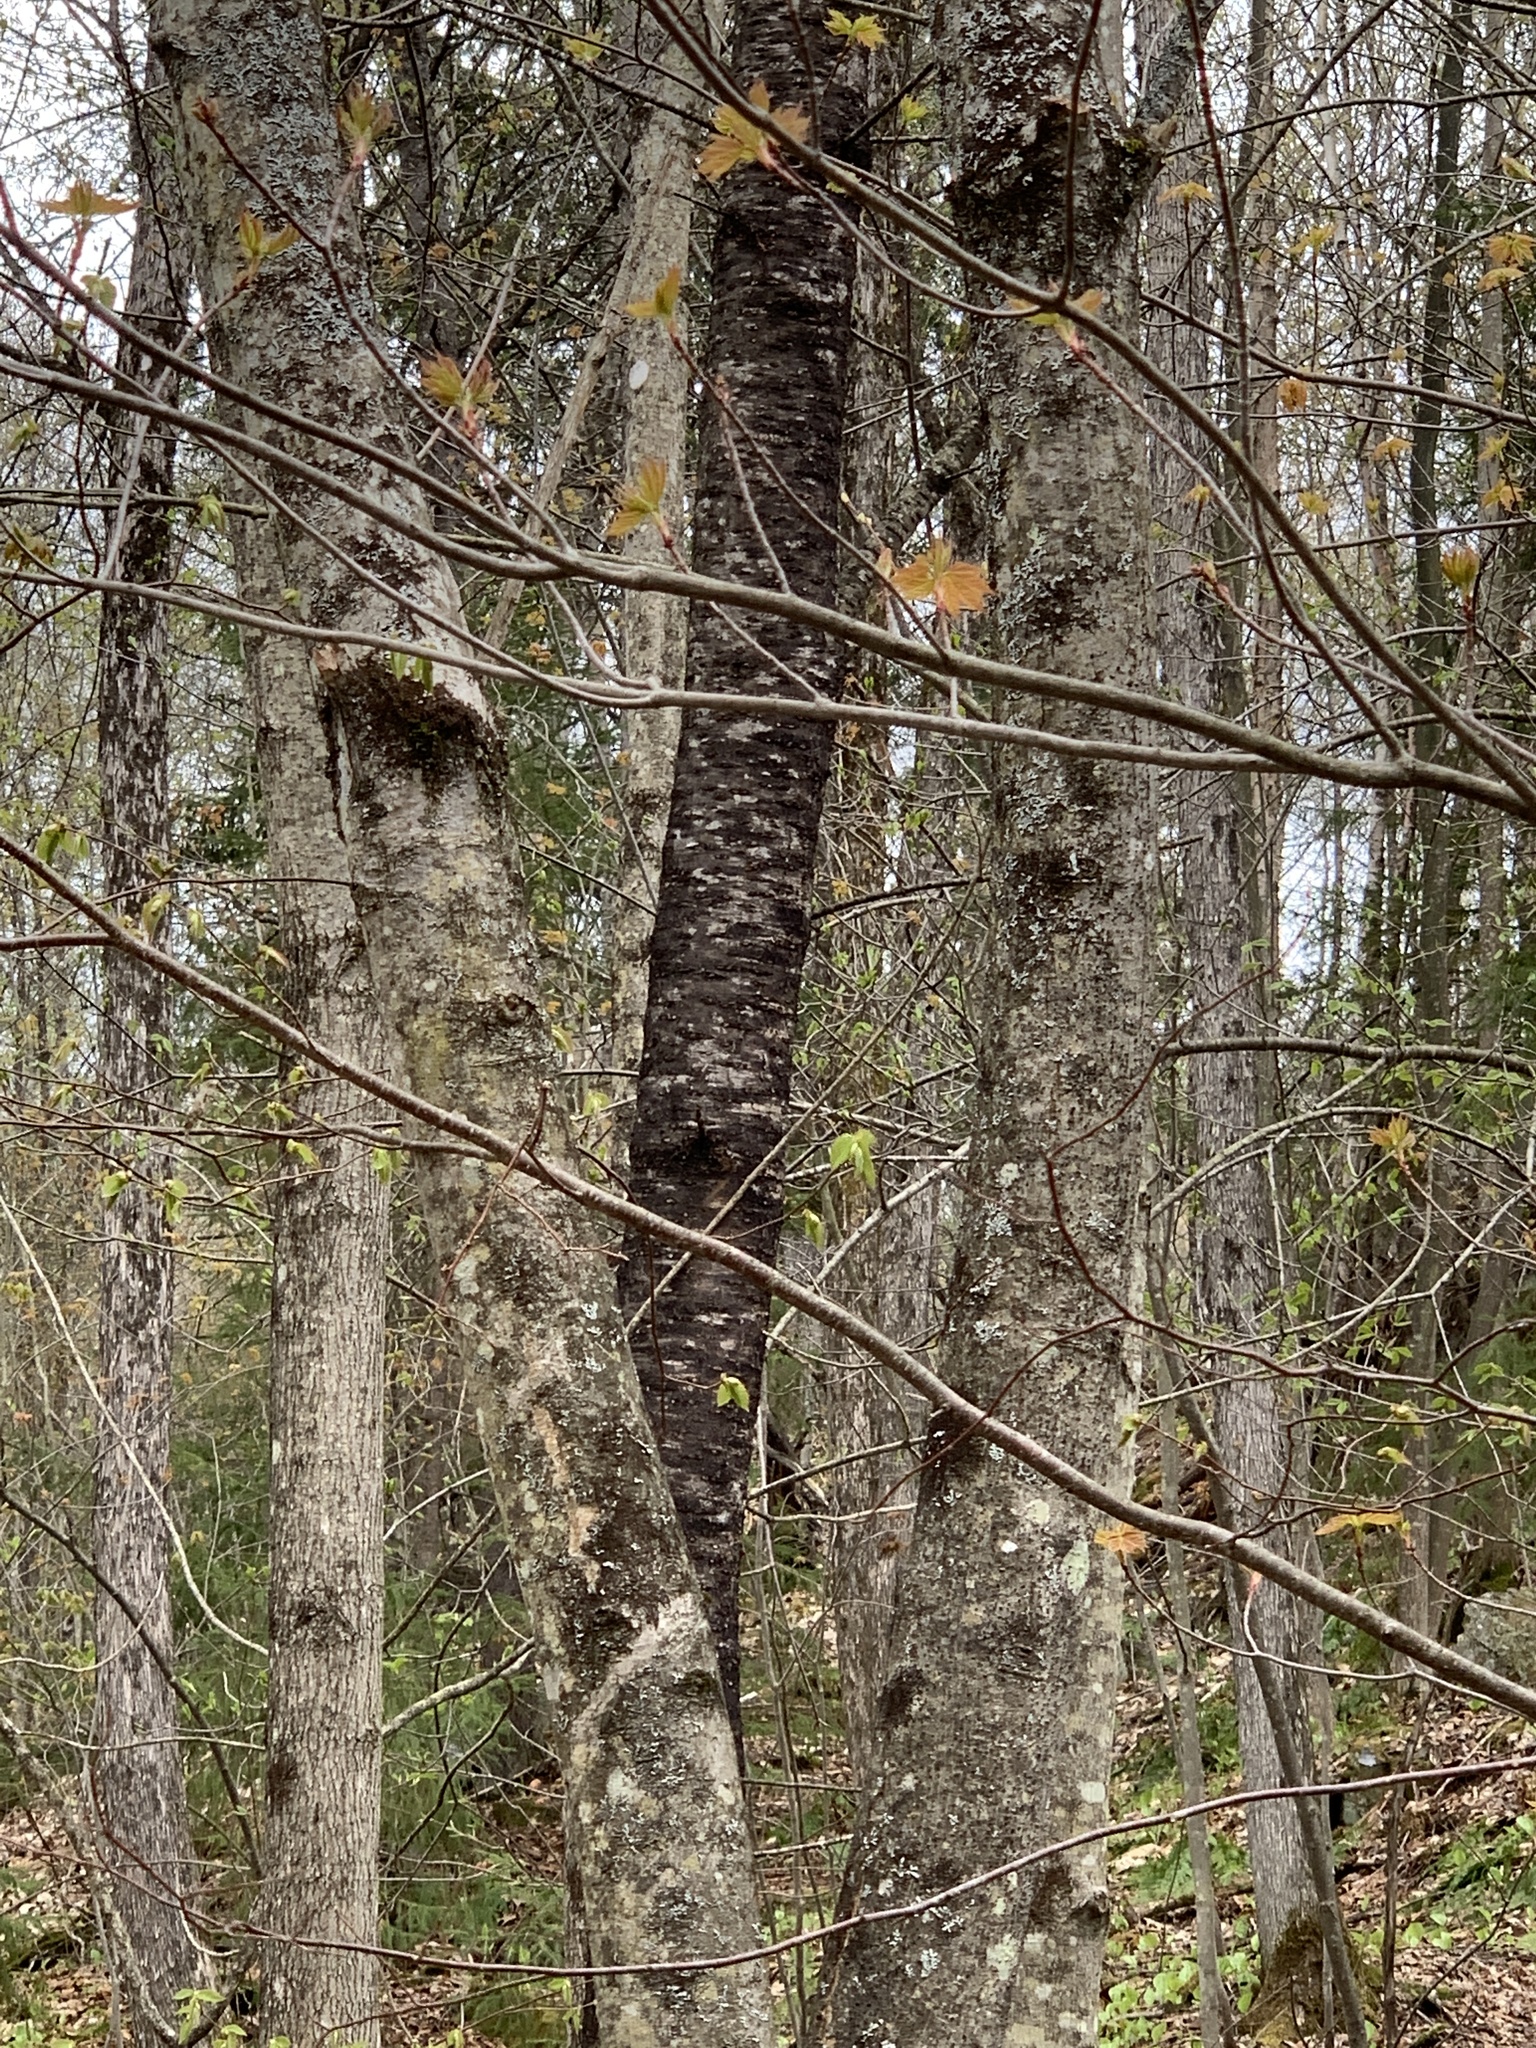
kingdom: Plantae
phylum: Tracheophyta
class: Magnoliopsida
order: Rosales
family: Rosaceae
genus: Prunus
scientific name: Prunus pensylvanica
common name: Pin cherry
